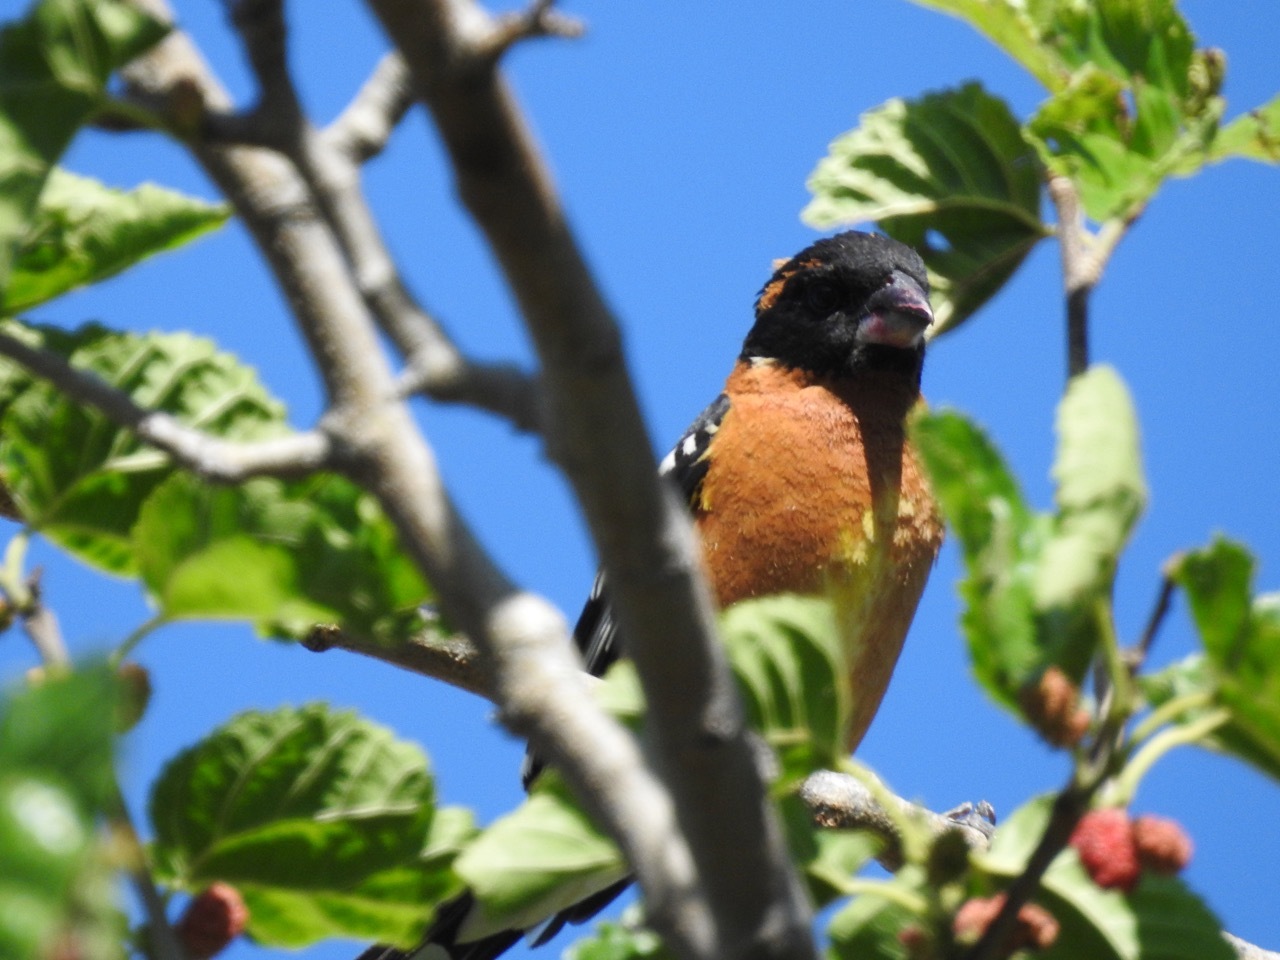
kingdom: Animalia
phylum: Chordata
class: Aves
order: Passeriformes
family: Cardinalidae
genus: Pheucticus
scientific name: Pheucticus melanocephalus
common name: Black-headed grosbeak
